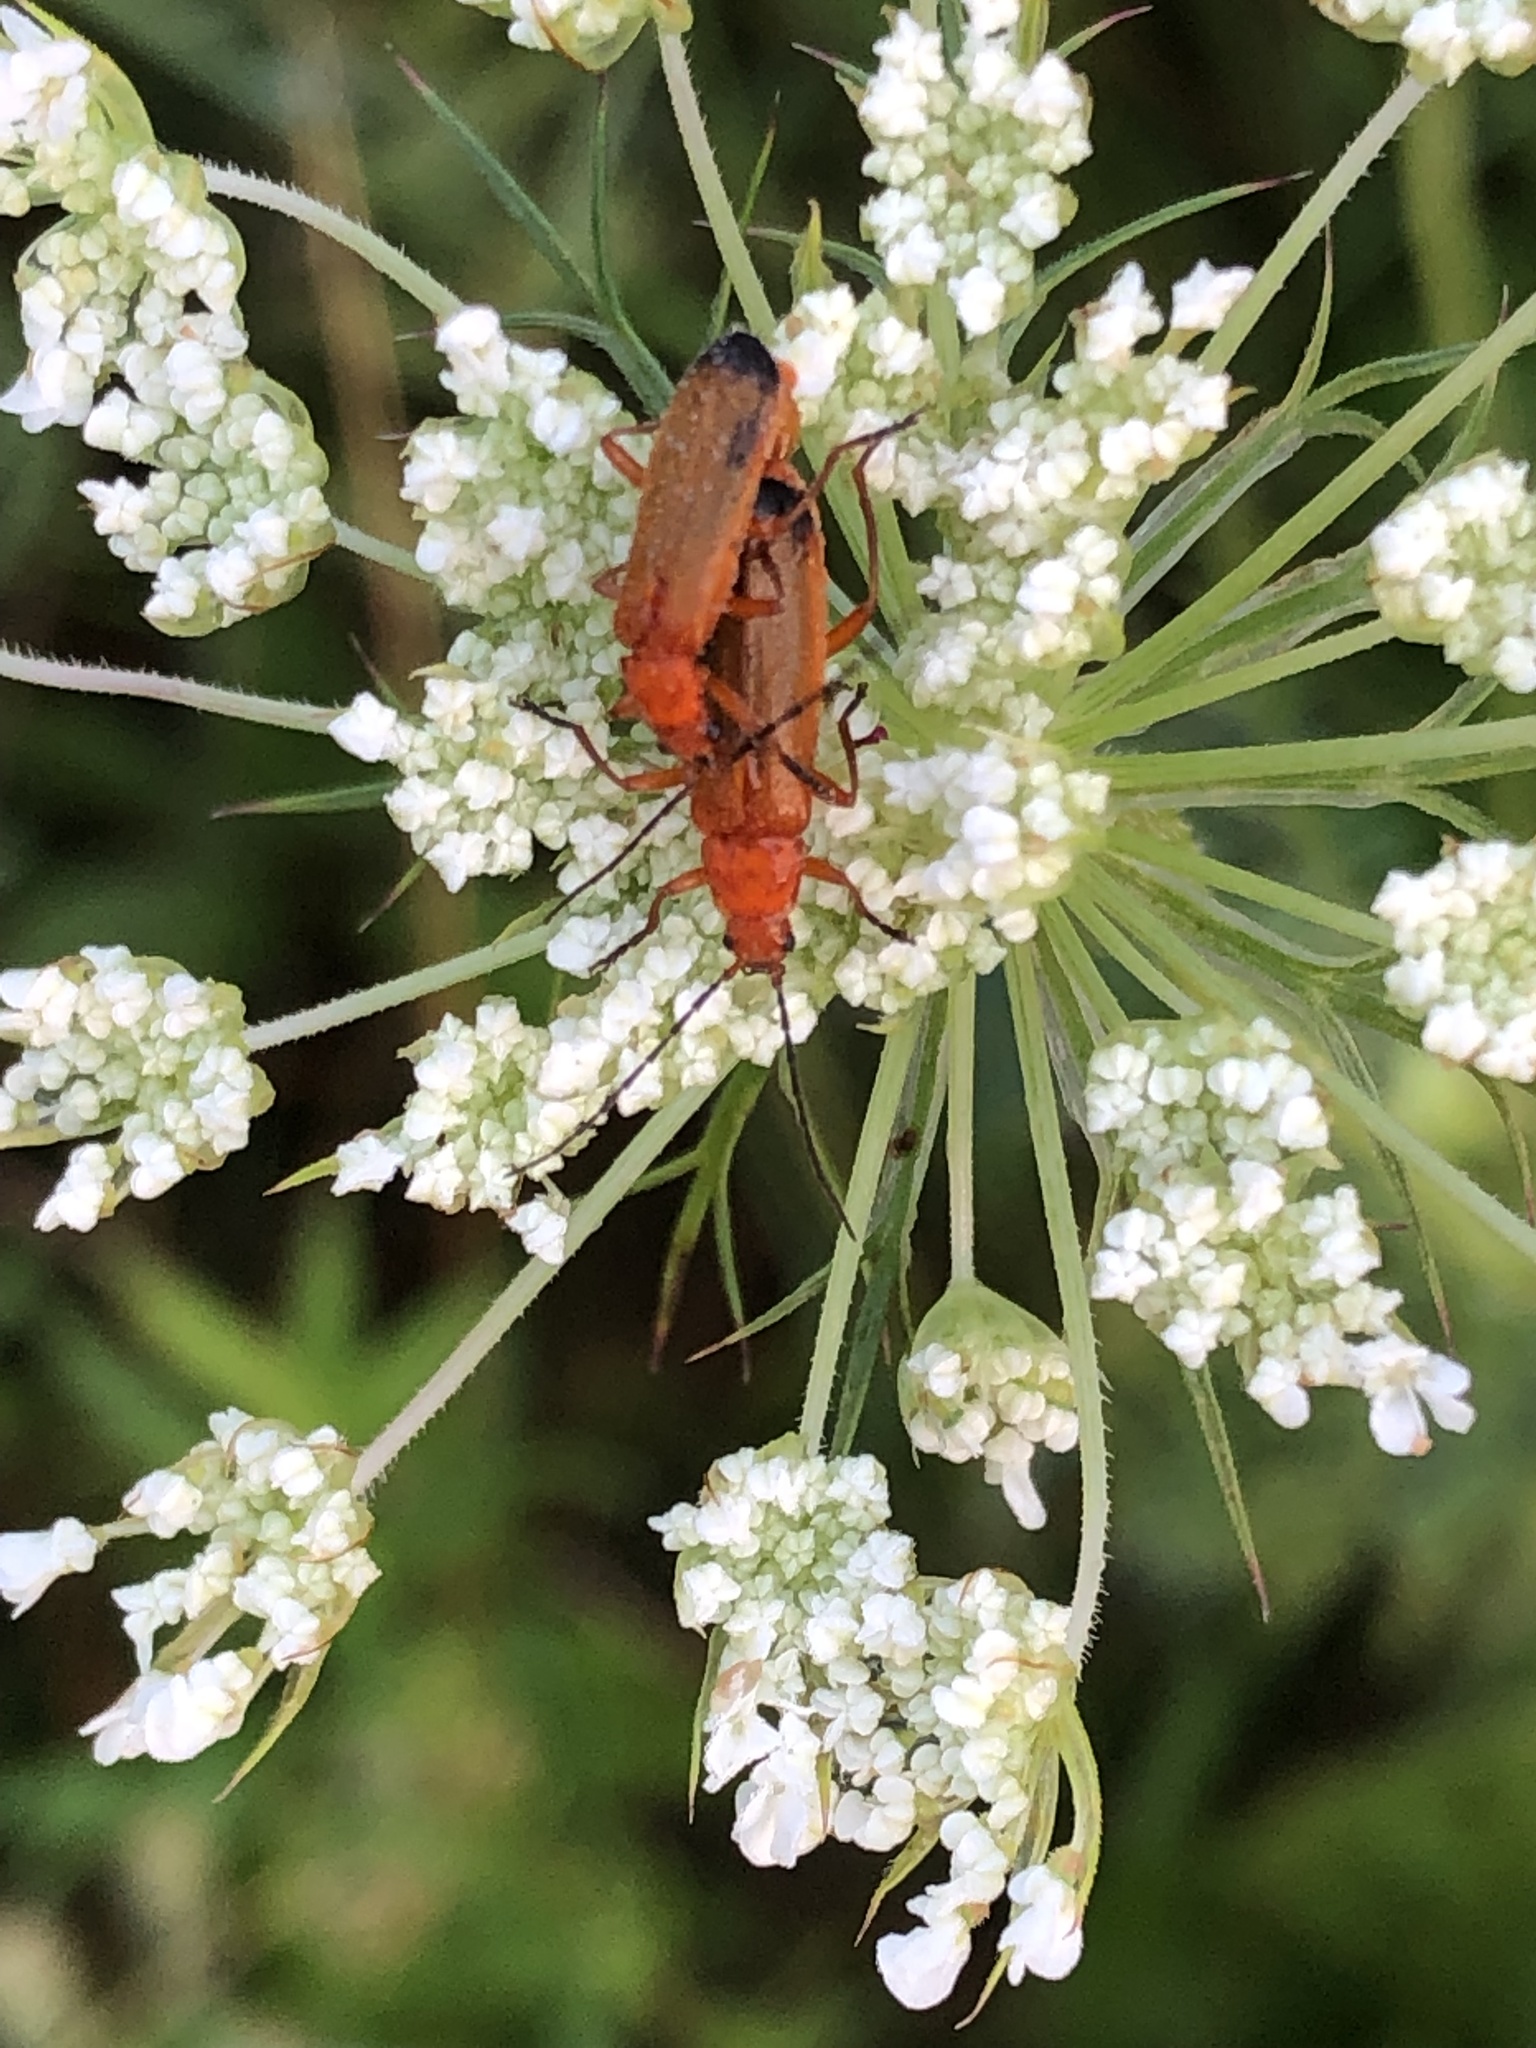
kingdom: Animalia
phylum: Arthropoda
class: Insecta
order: Coleoptera
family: Cantharidae
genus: Rhagonycha
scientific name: Rhagonycha fulva
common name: Common red soldier beetle
